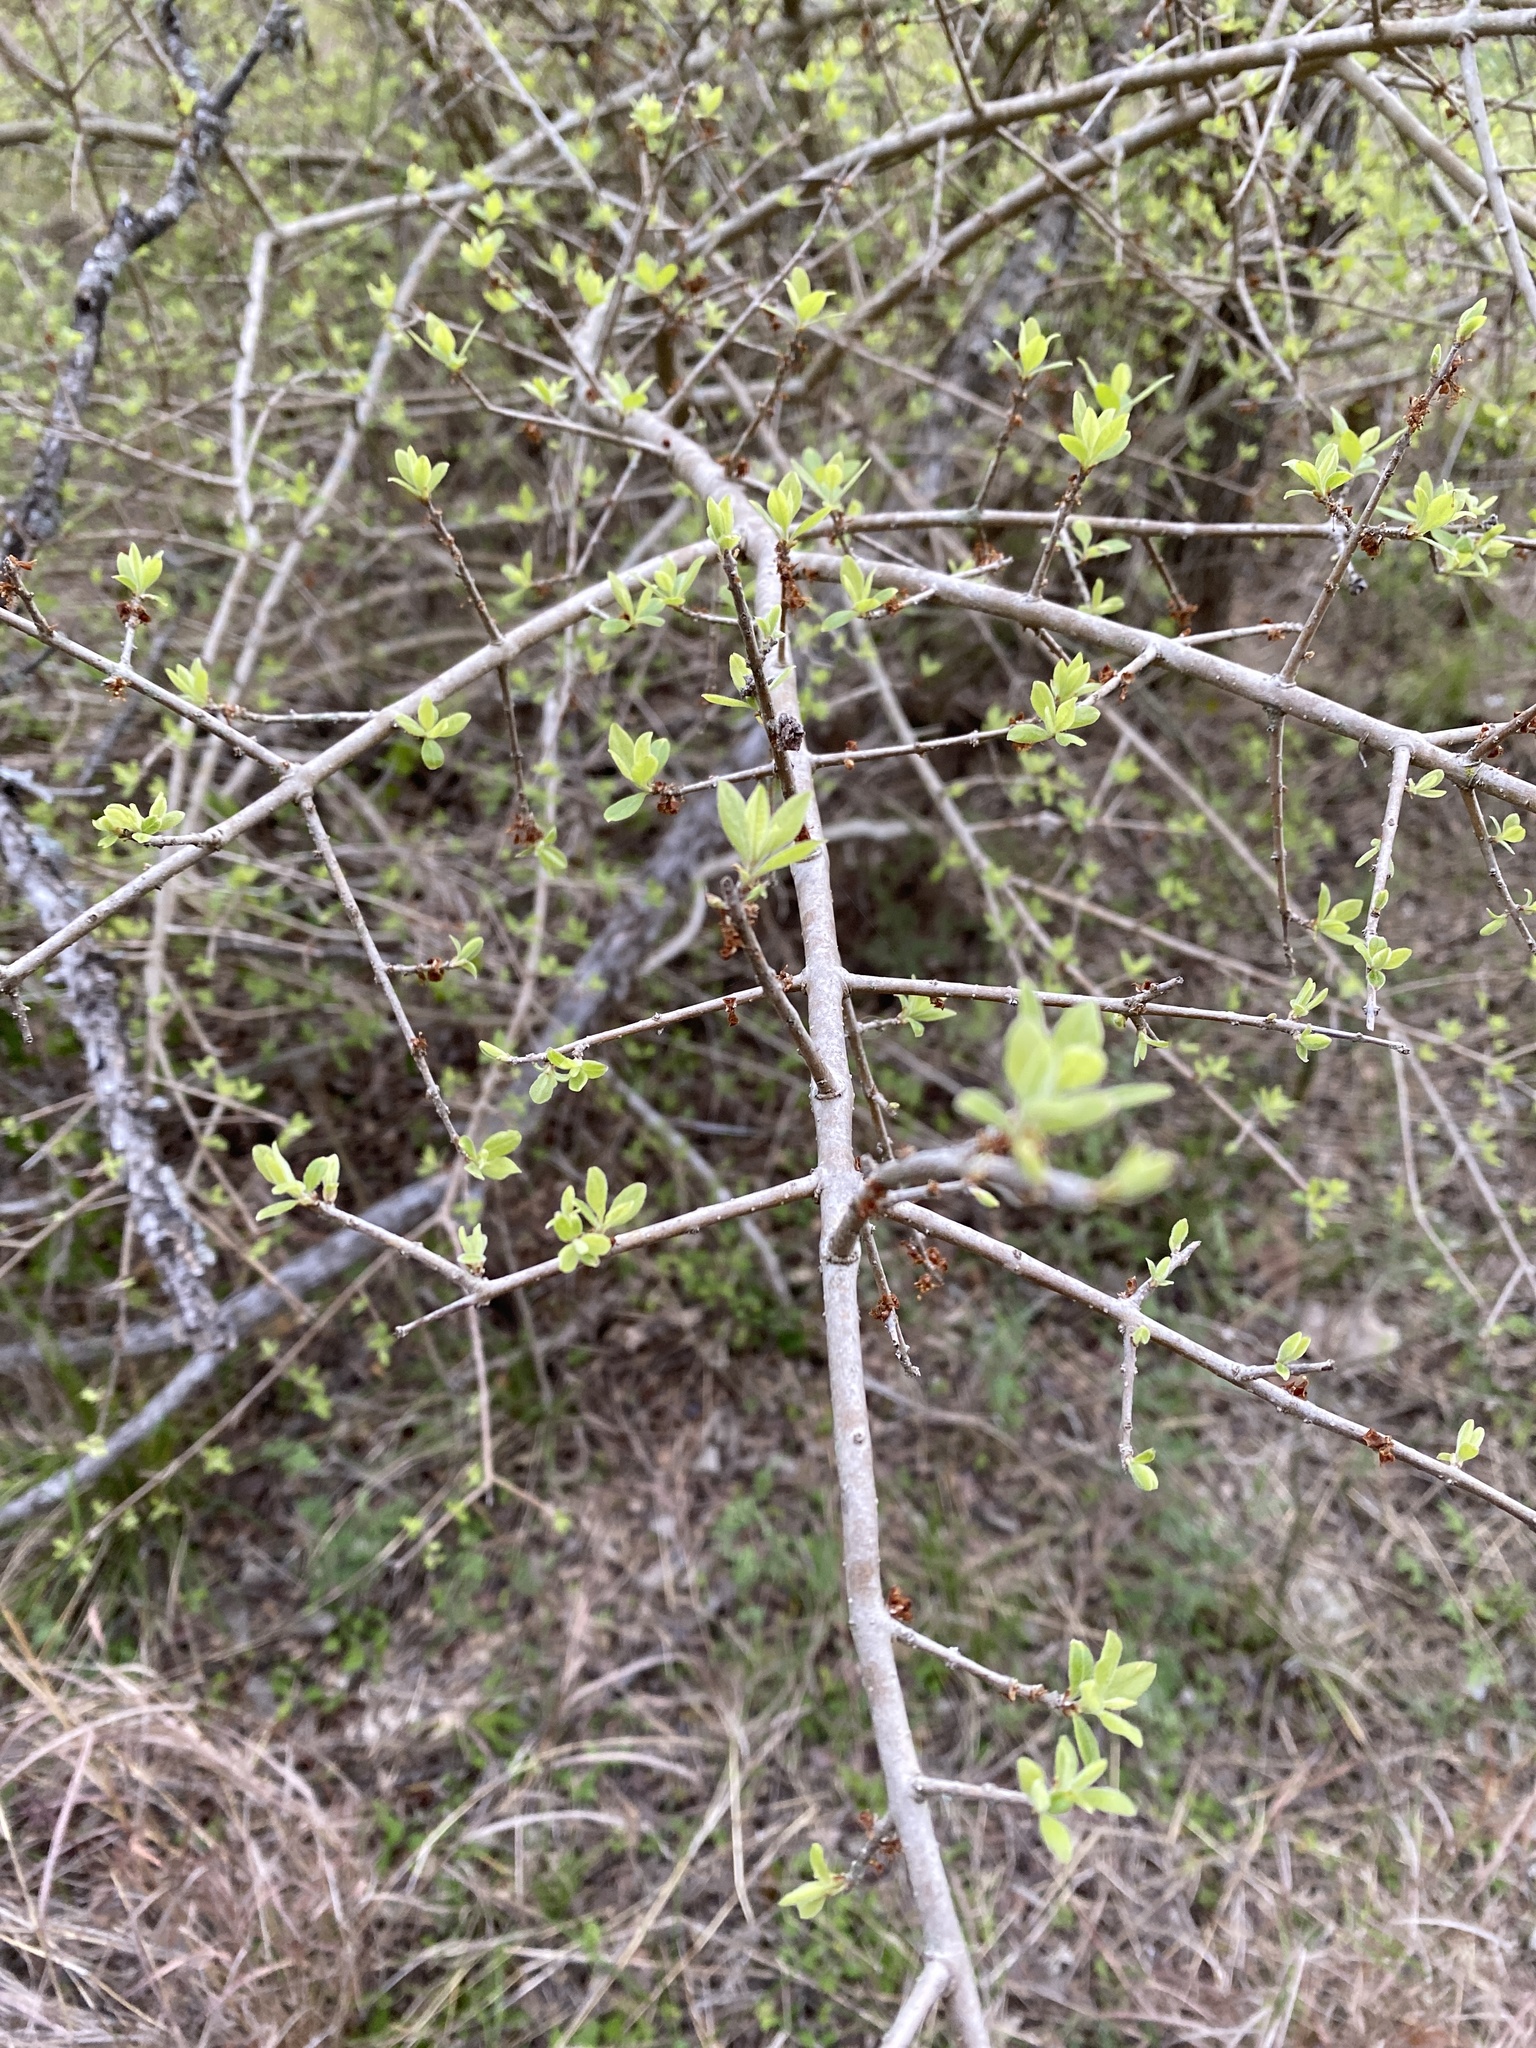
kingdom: Plantae
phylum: Tracheophyta
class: Magnoliopsida
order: Lamiales
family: Oleaceae
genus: Forestiera
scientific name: Forestiera pubescens
